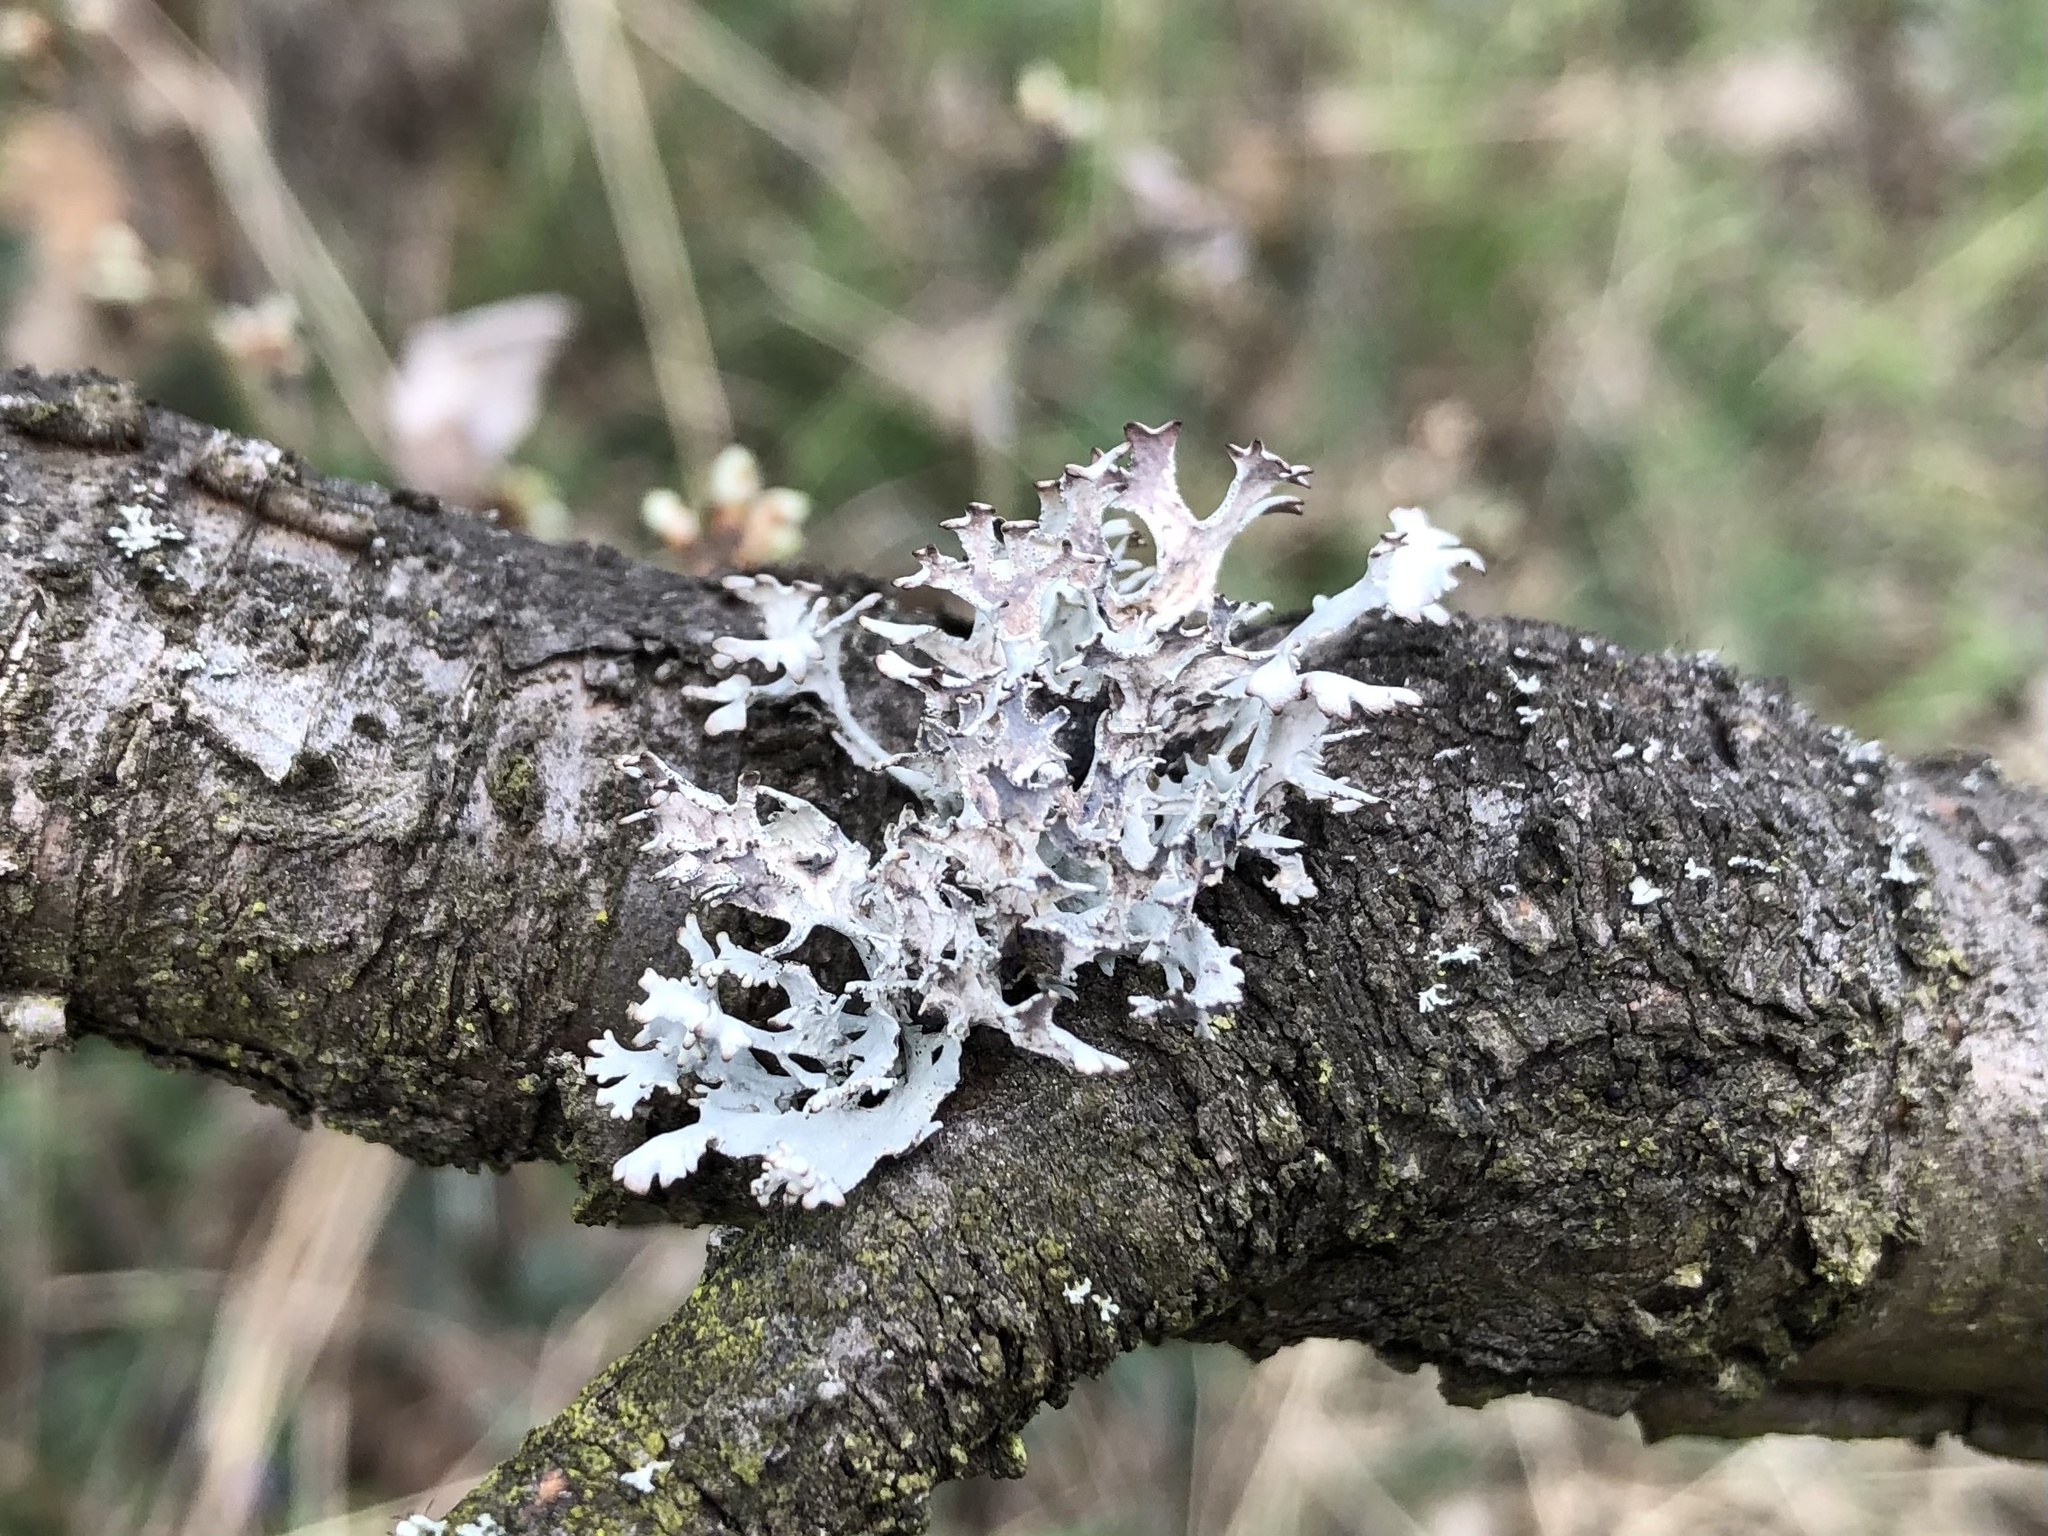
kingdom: Fungi
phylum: Ascomycota
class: Lecanoromycetes
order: Lecanorales
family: Parmeliaceae
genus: Pseudevernia
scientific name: Pseudevernia furfuracea
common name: Tree moss
